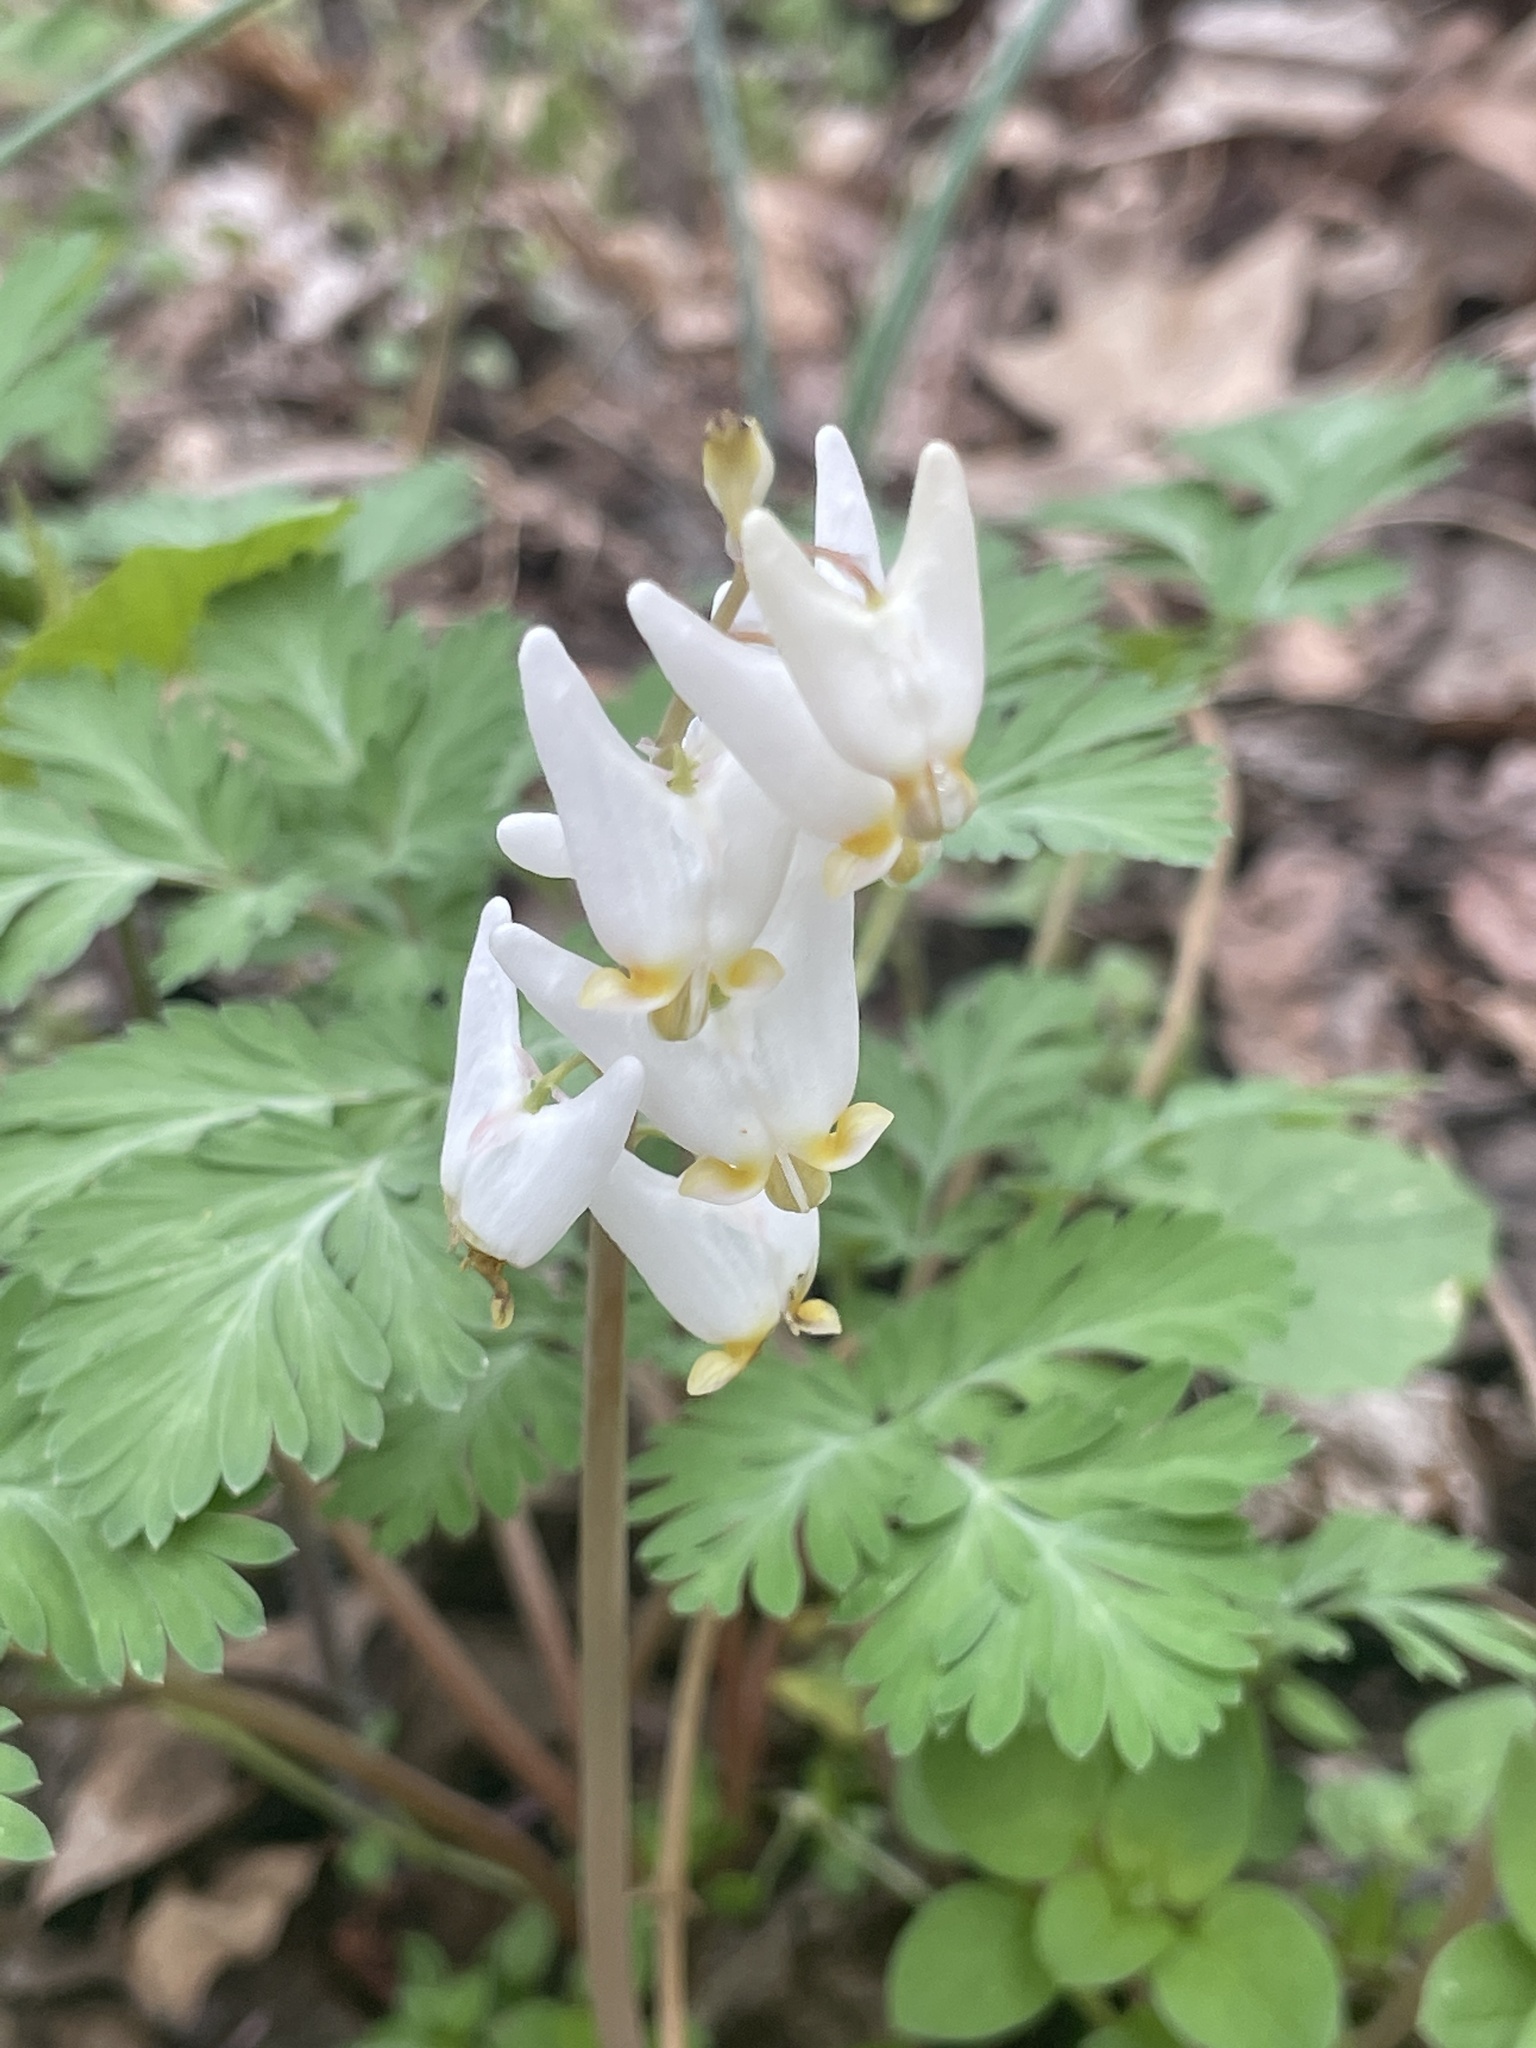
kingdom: Plantae
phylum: Tracheophyta
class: Magnoliopsida
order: Ranunculales
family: Papaveraceae
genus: Dicentra
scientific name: Dicentra cucullaria
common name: Dutchman's breeches
